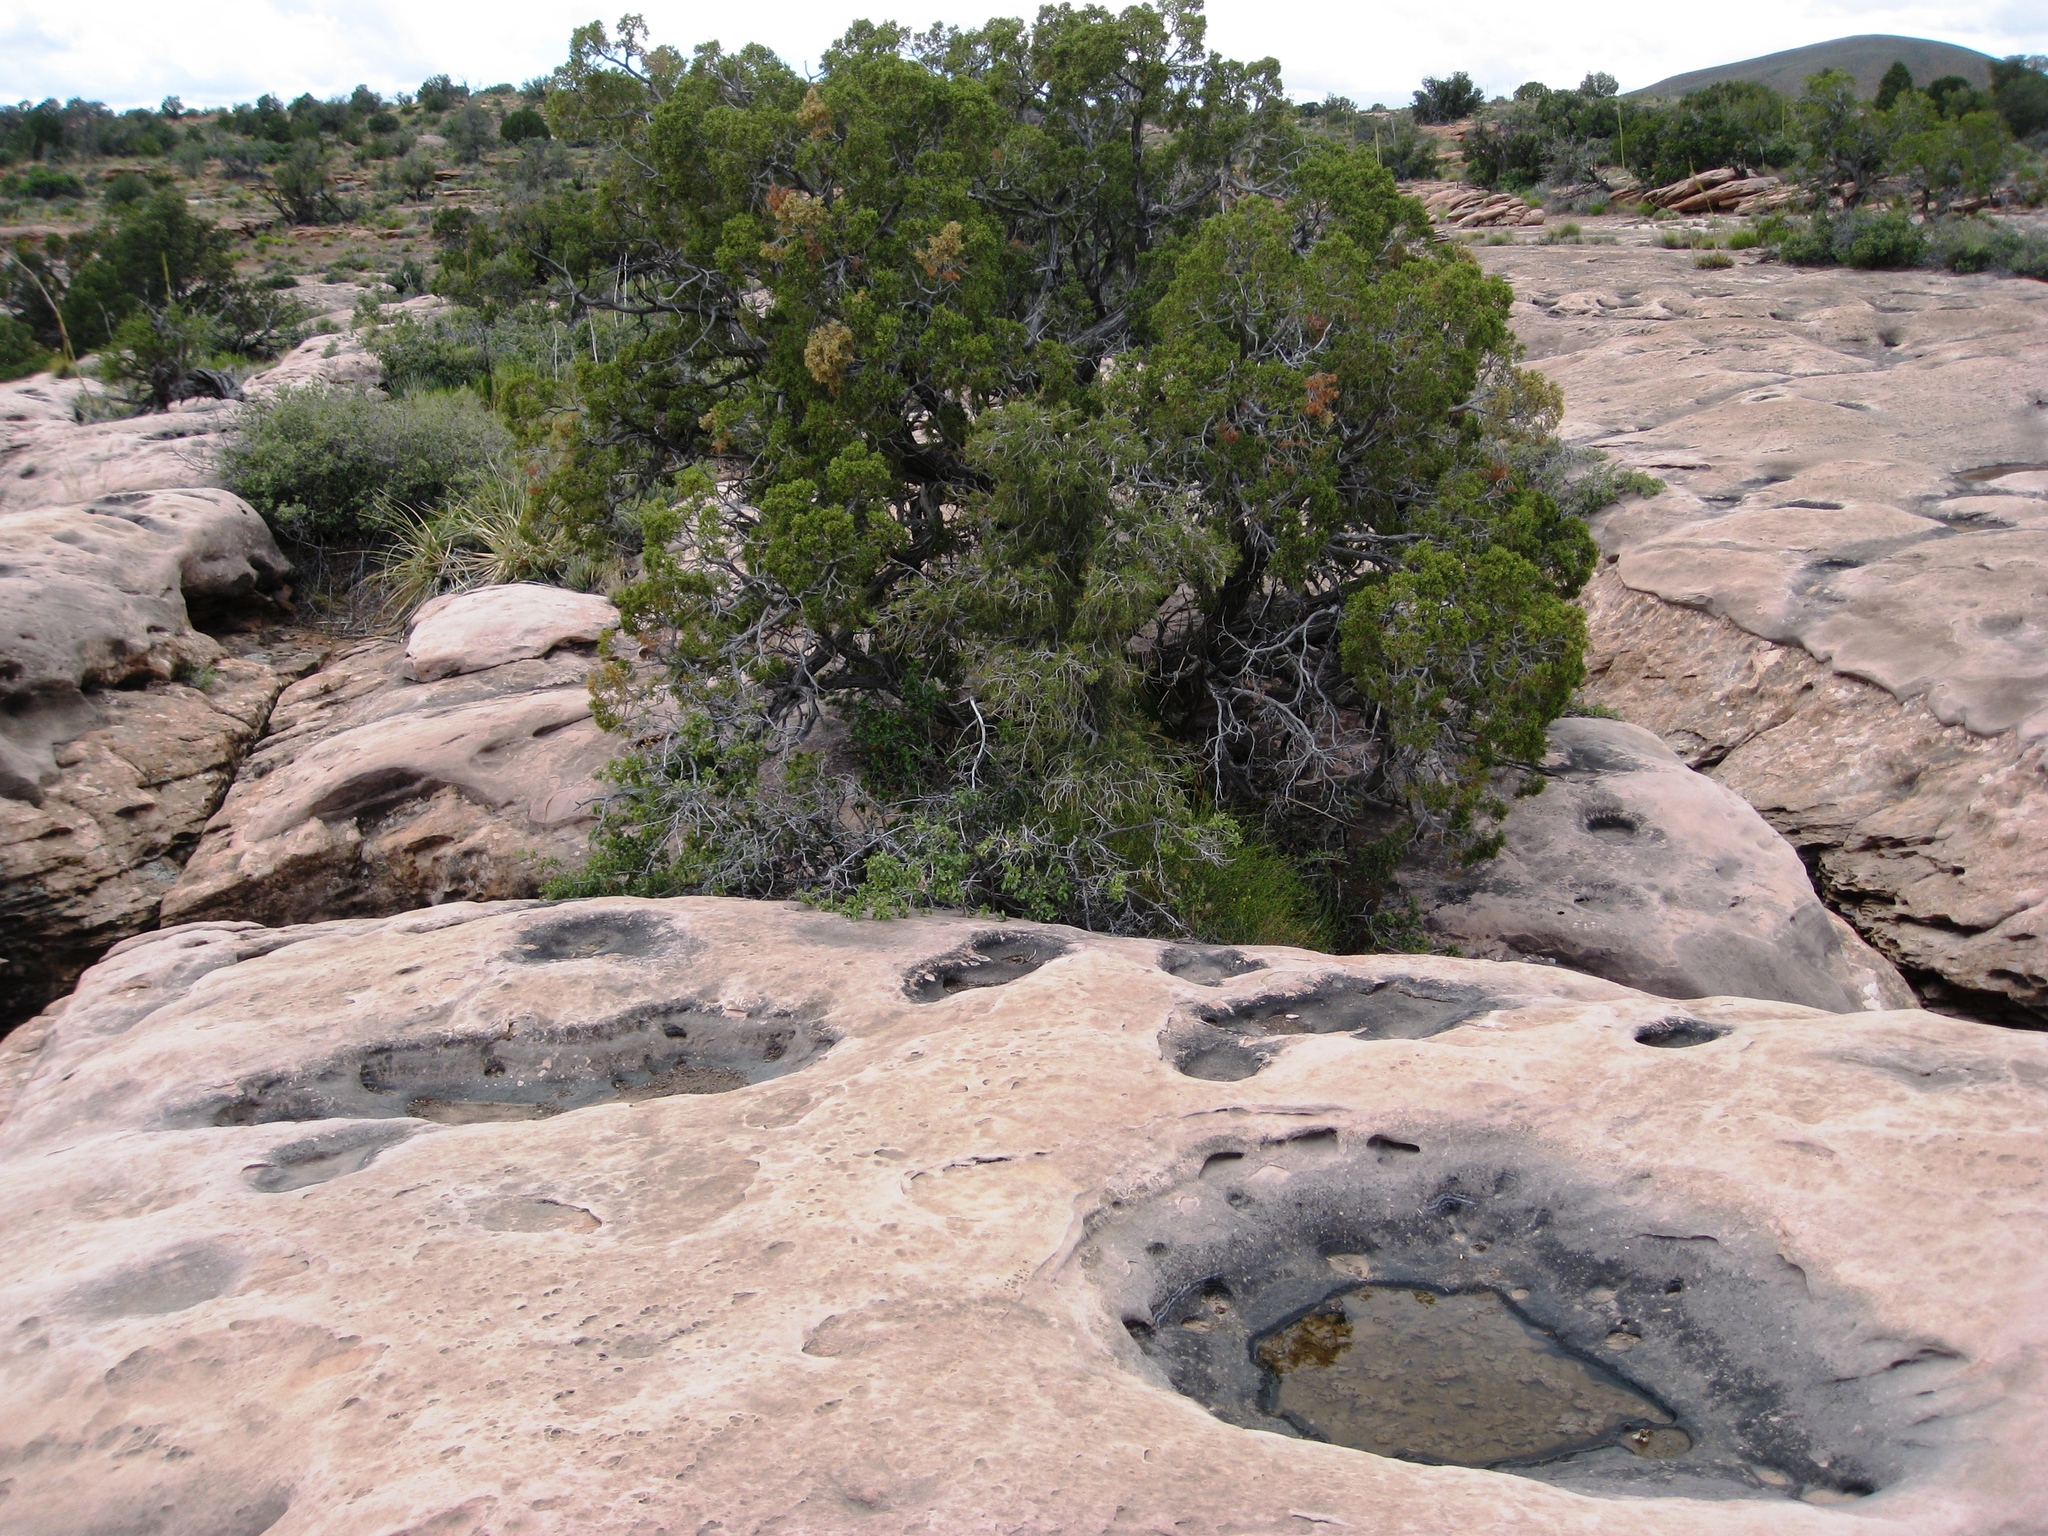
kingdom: Plantae
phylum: Tracheophyta
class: Pinopsida
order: Pinales
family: Cupressaceae
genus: Juniperus
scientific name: Juniperus osteosperma
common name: Utah juniper
